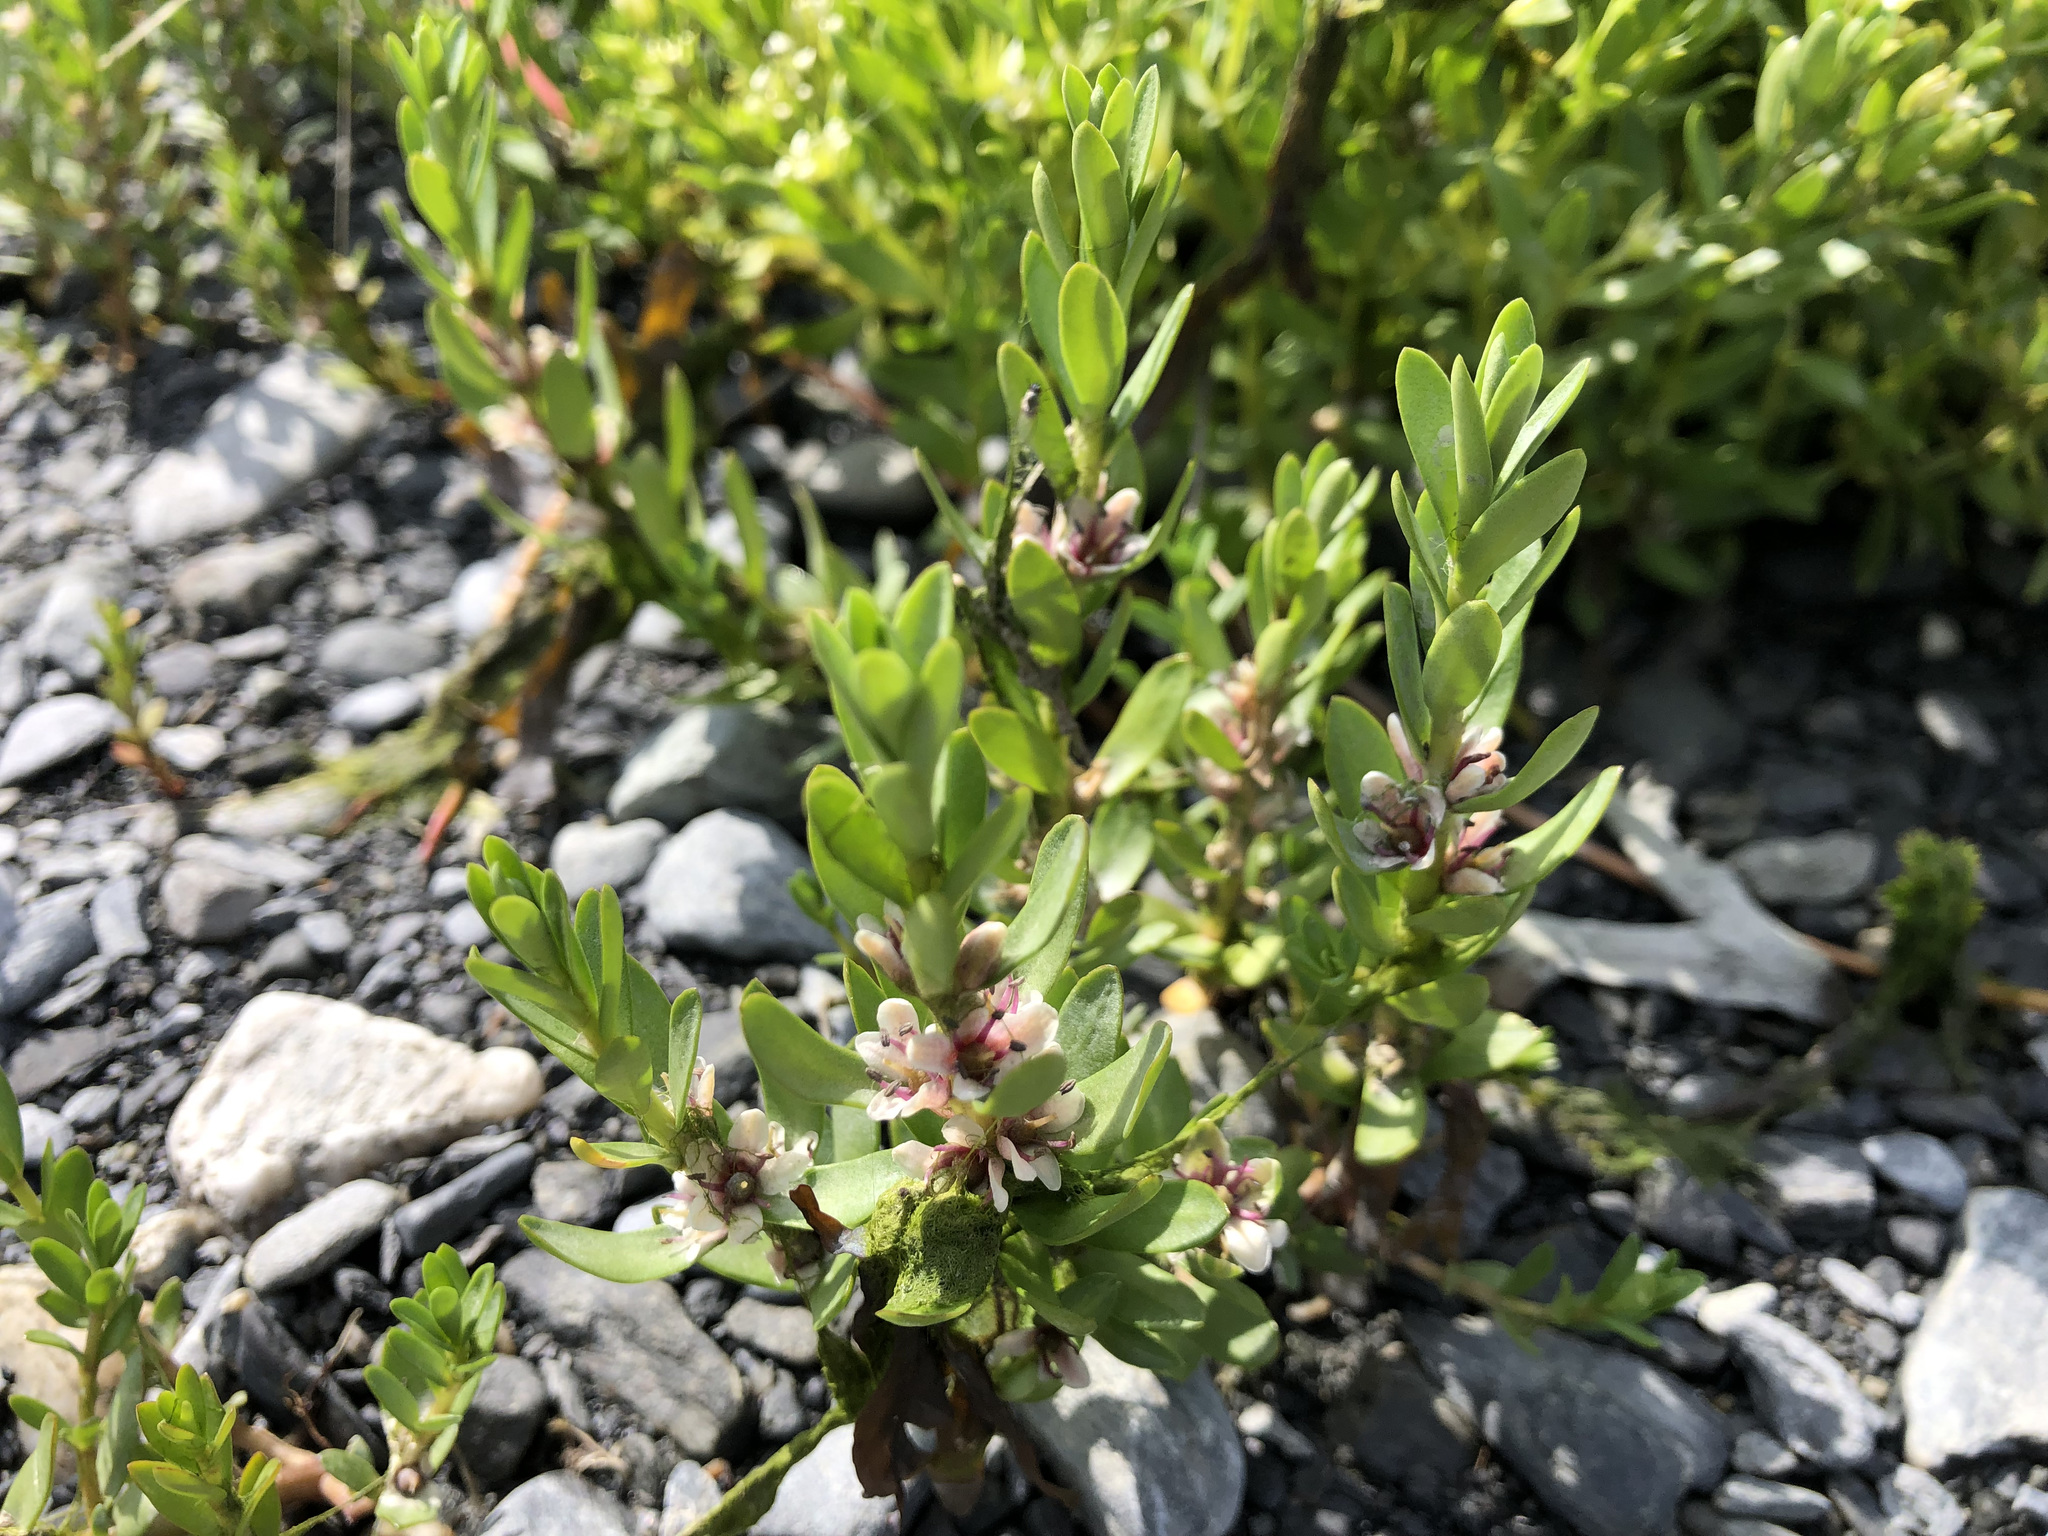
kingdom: Plantae
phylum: Tracheophyta
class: Magnoliopsida
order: Ericales
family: Primulaceae
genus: Lysimachia
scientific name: Lysimachia maritima
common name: Sea milkwort
